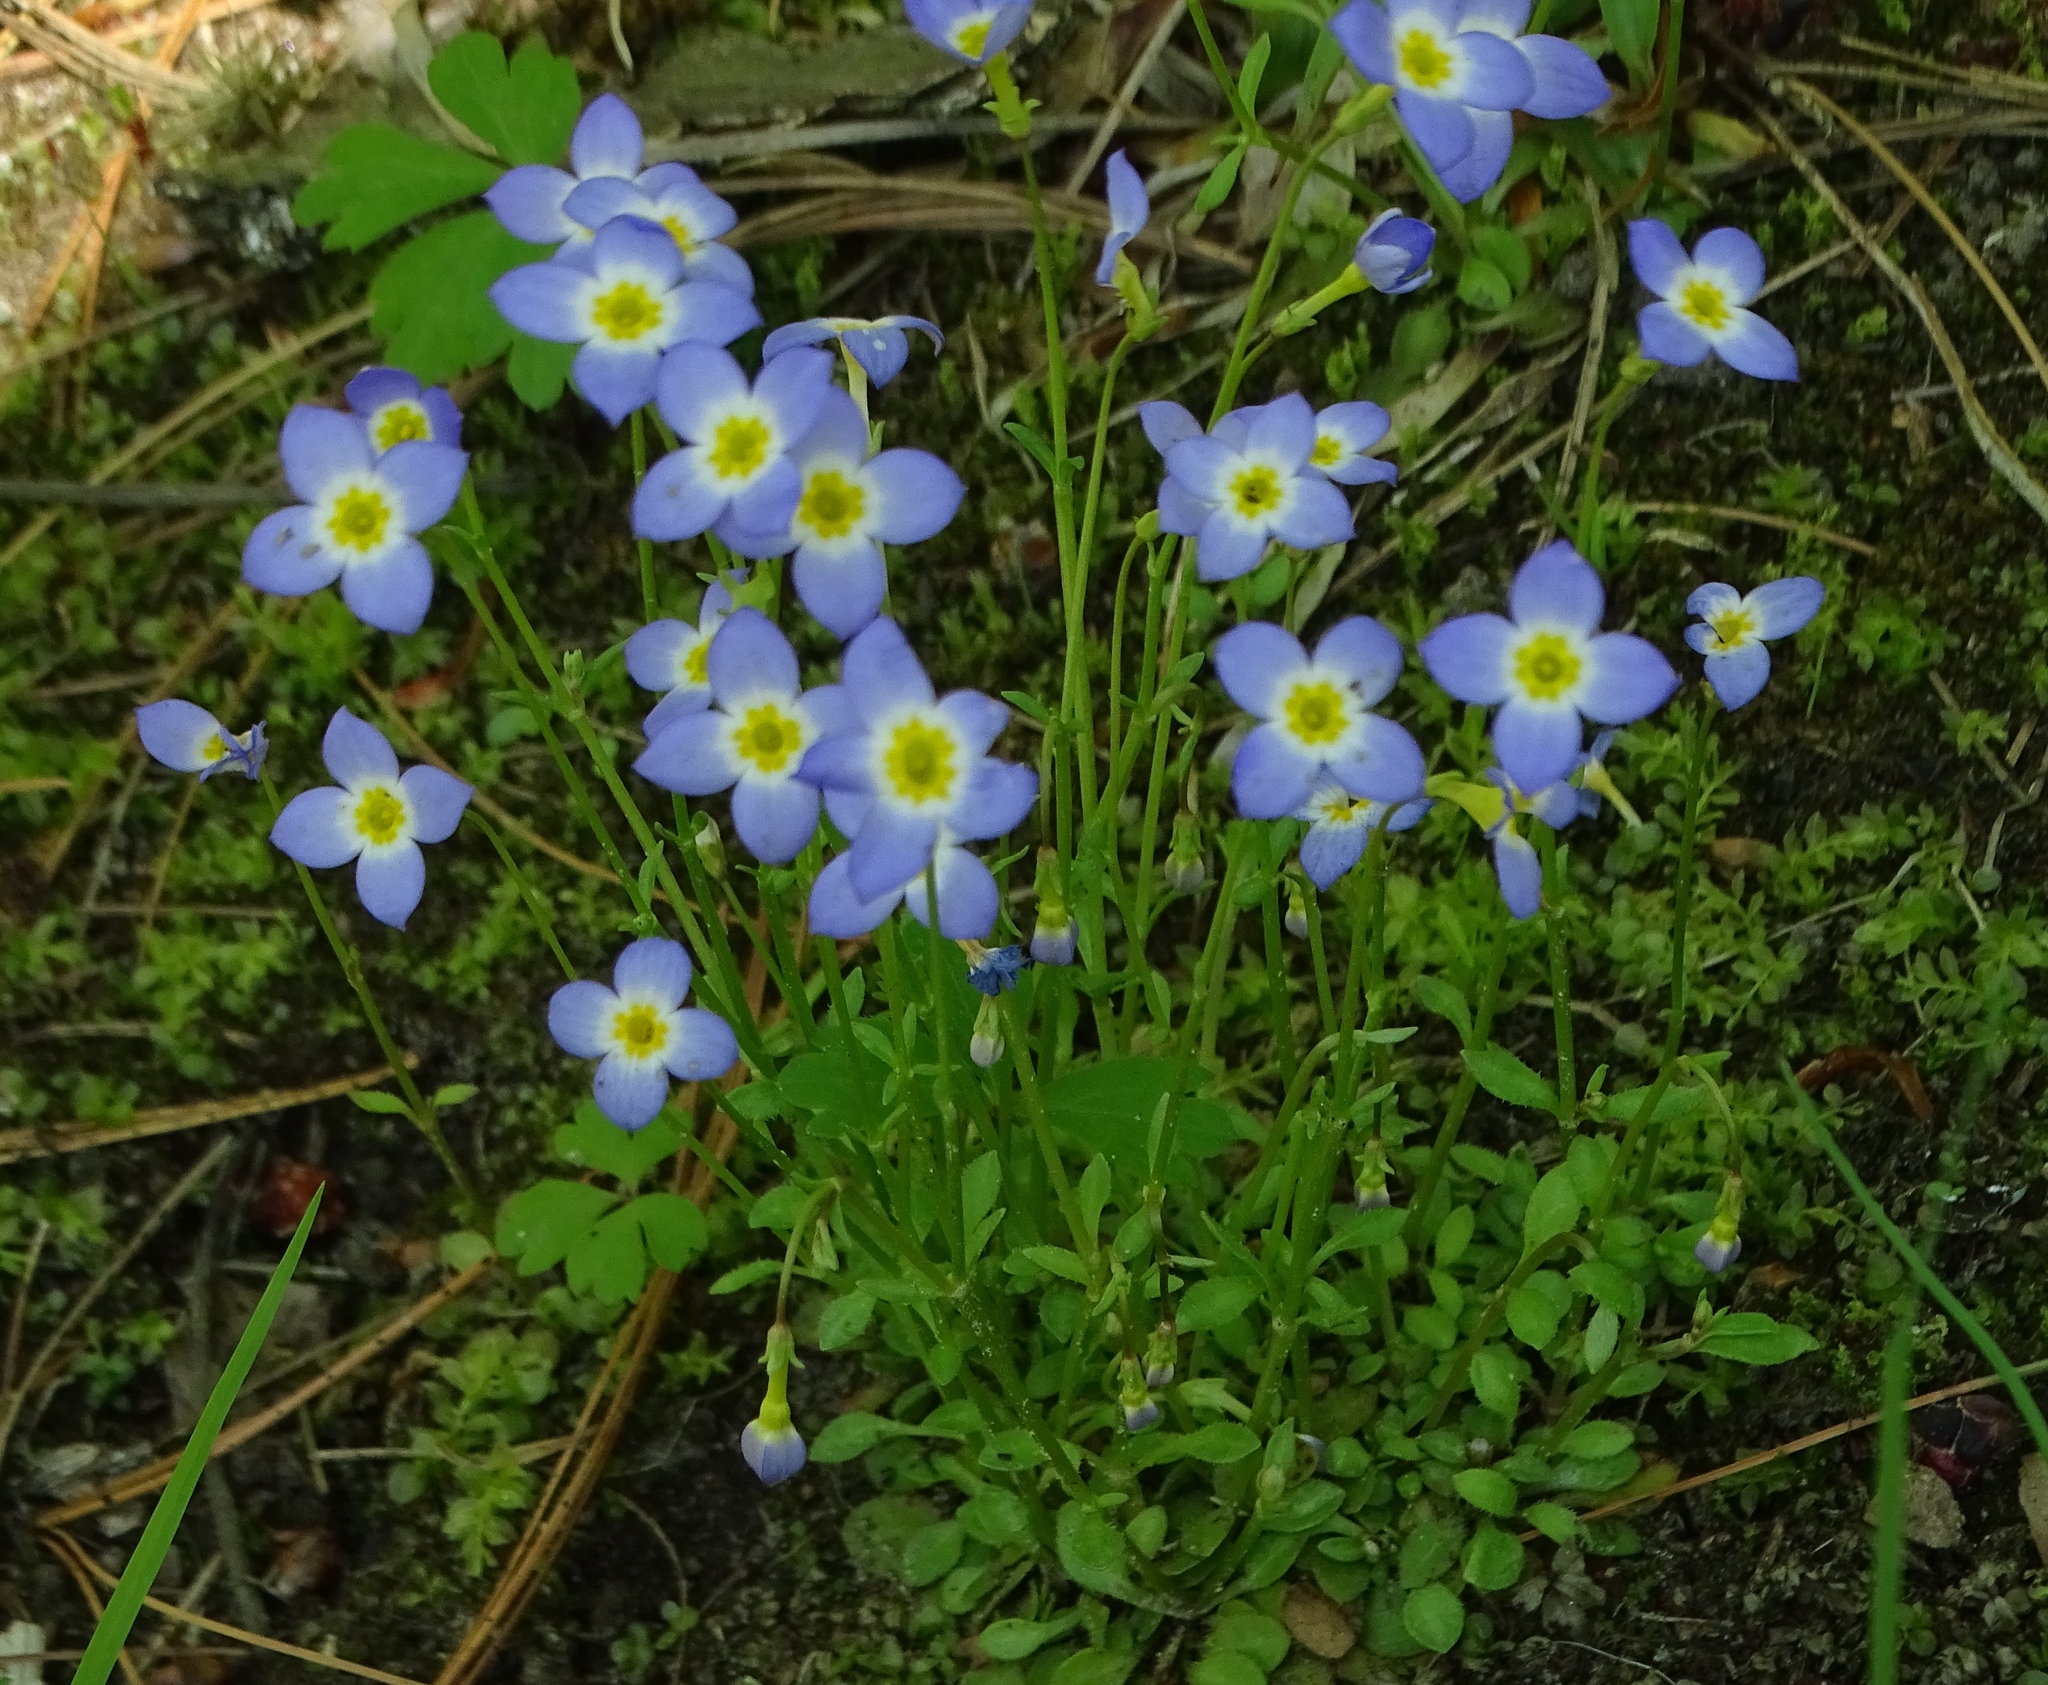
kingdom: Plantae
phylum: Tracheophyta
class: Magnoliopsida
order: Gentianales
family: Rubiaceae
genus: Houstonia
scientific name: Houstonia caerulea
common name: Bluets
